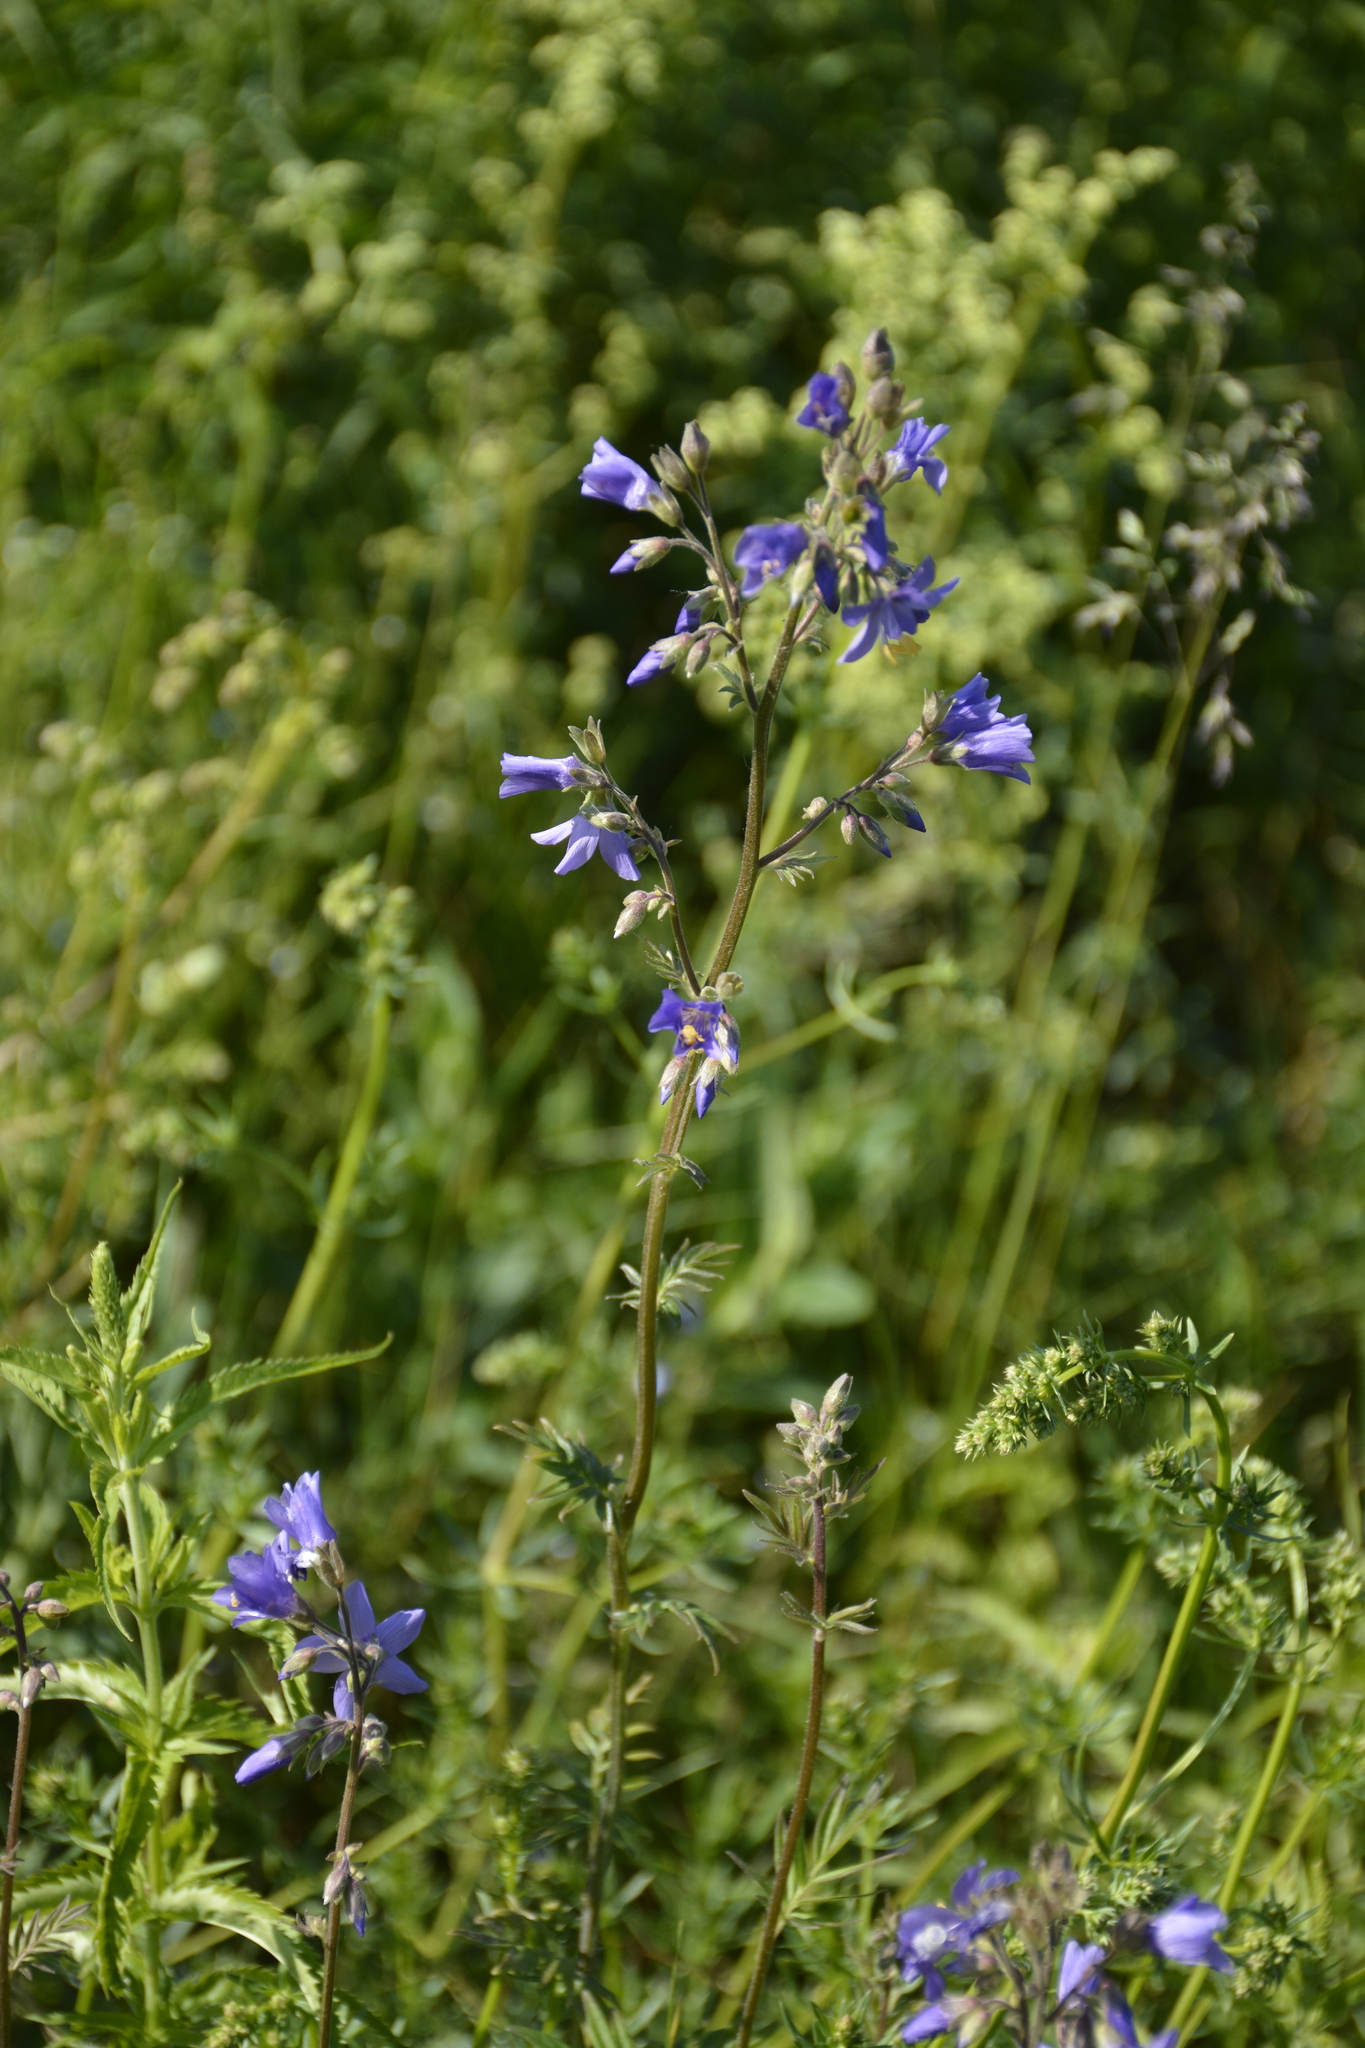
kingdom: Plantae
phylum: Tracheophyta
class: Magnoliopsida
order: Ericales
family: Polemoniaceae
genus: Polemonium
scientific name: Polemonium caeruleum
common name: Jacob's-ladder
